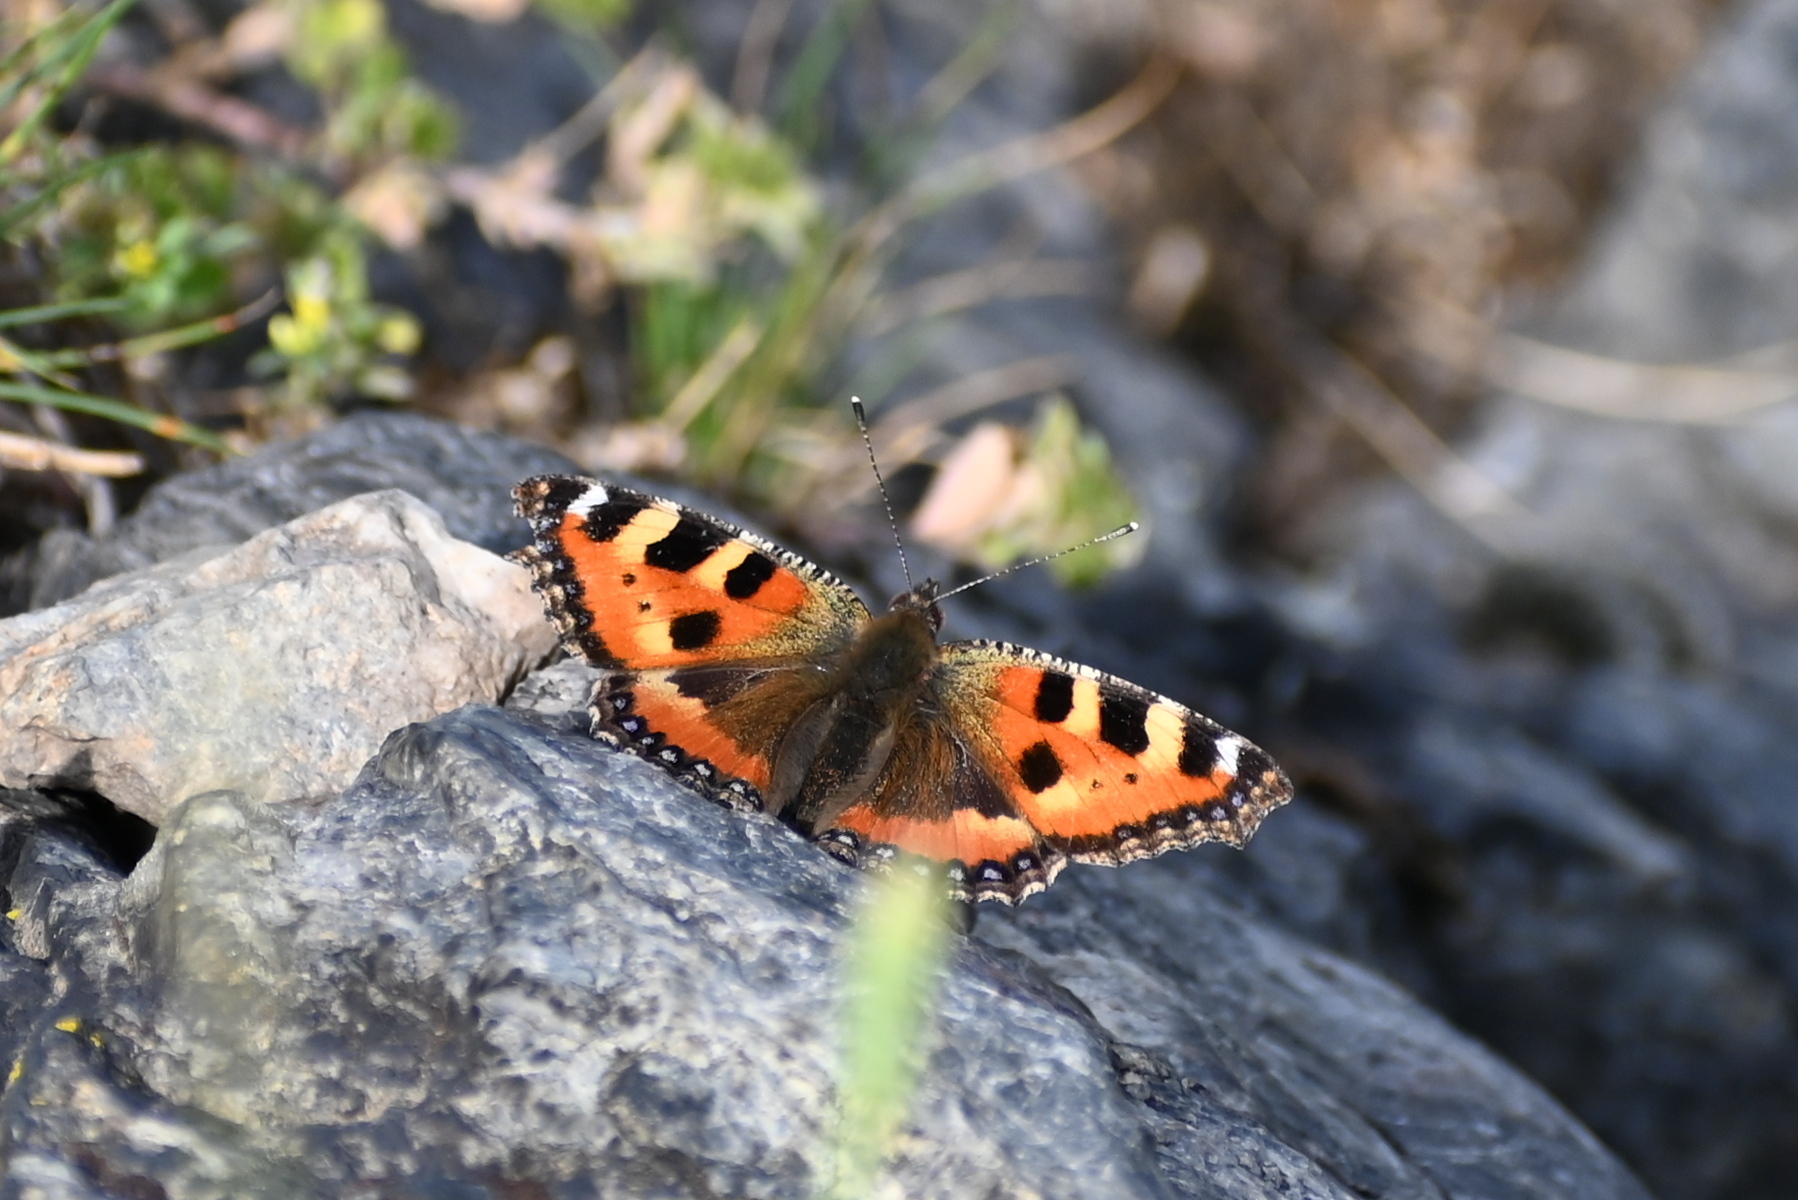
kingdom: Animalia
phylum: Arthropoda
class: Insecta
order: Lepidoptera
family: Nymphalidae
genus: Aglais
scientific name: Aglais urticae
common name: Small tortoiseshell
